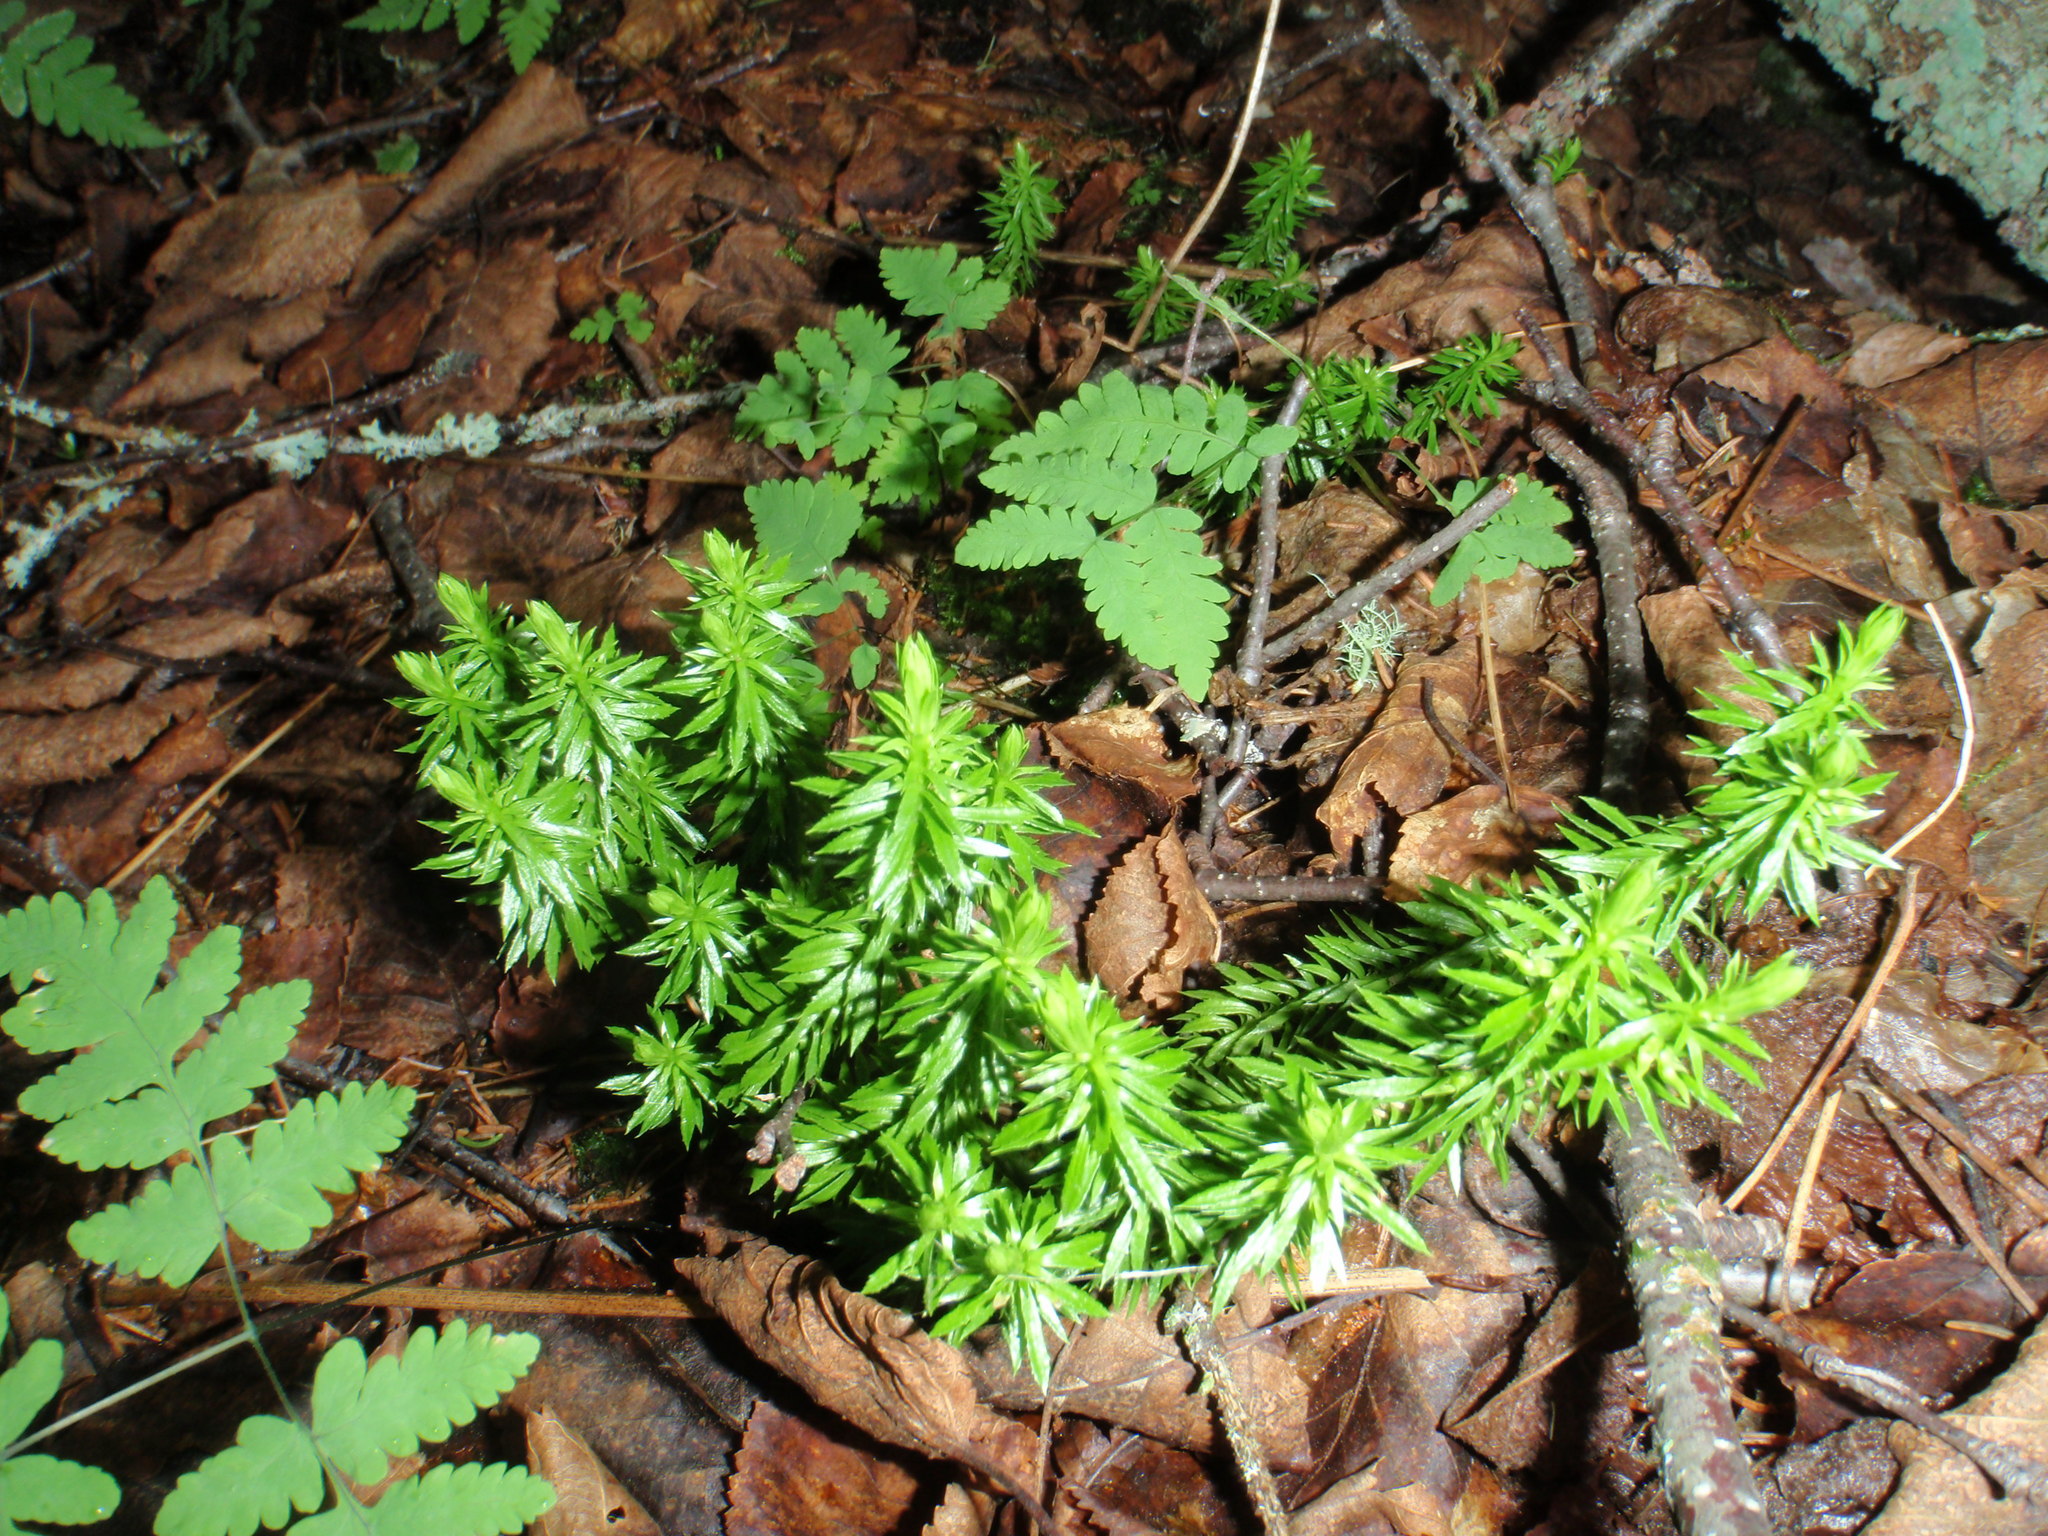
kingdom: Plantae
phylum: Tracheophyta
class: Lycopodiopsida
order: Lycopodiales
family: Lycopodiaceae
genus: Huperzia
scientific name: Huperzia lucidula
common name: Shining clubmoss
